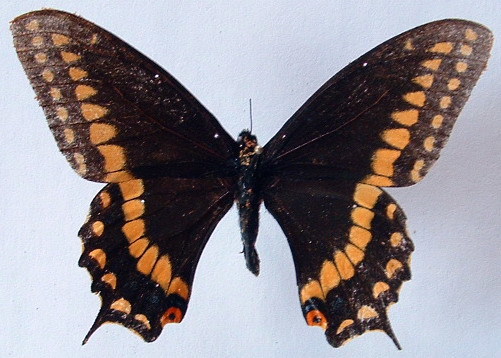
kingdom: Animalia
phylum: Arthropoda
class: Insecta
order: Lepidoptera
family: Papilionidae
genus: Papilio
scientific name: Papilio polyxenes
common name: Black swallowtail
